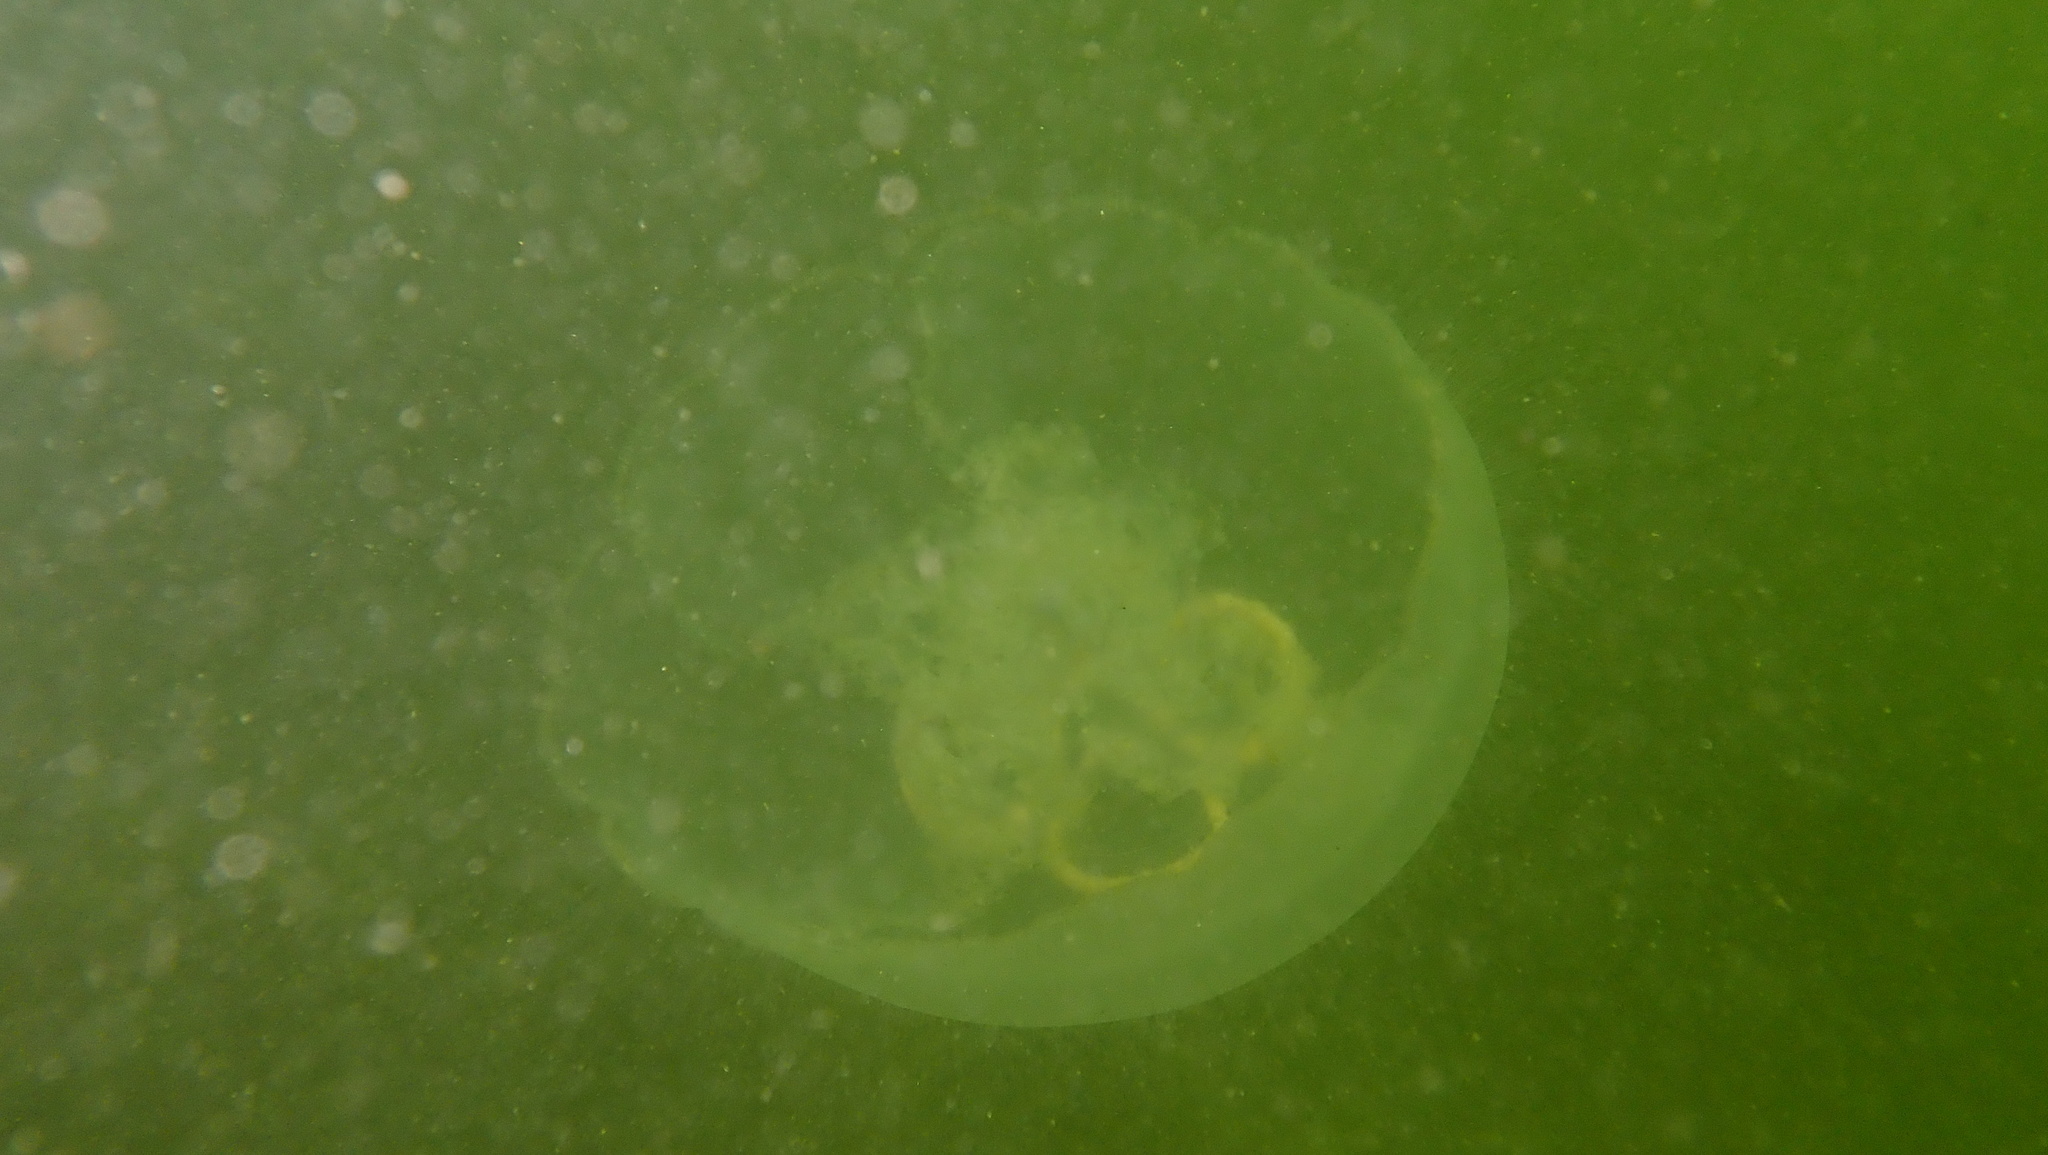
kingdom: Animalia
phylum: Cnidaria
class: Scyphozoa
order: Semaeostomeae
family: Ulmaridae
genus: Aurelia
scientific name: Aurelia aurita
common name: Moon jellyfish
